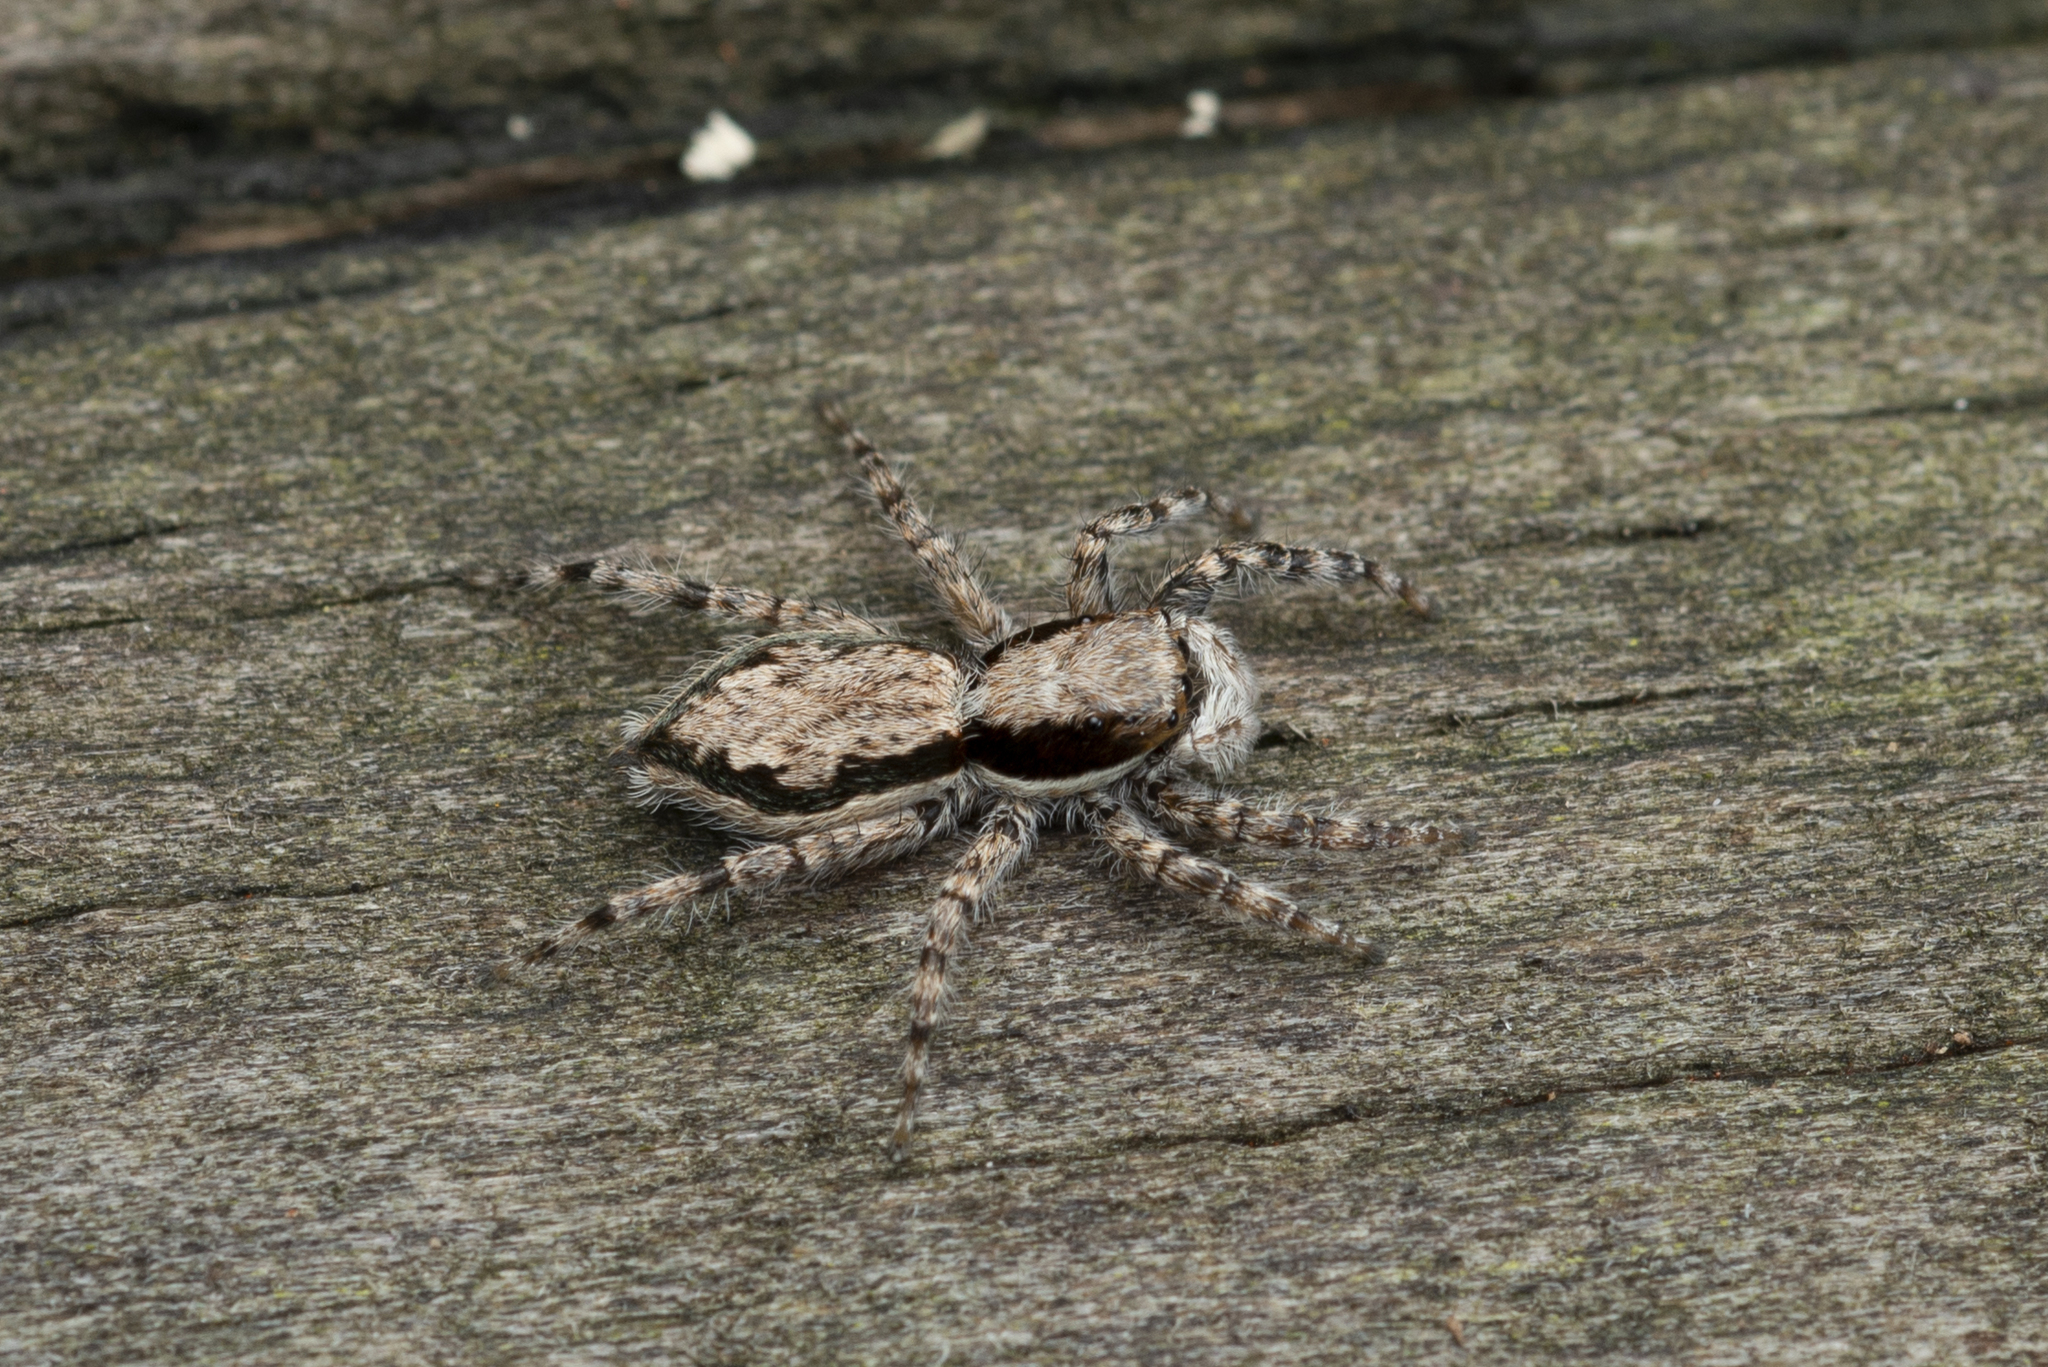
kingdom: Animalia
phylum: Arthropoda
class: Arachnida
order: Araneae
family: Salticidae
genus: Menemerus
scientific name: Menemerus bivittatus
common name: Gray wall jumper
